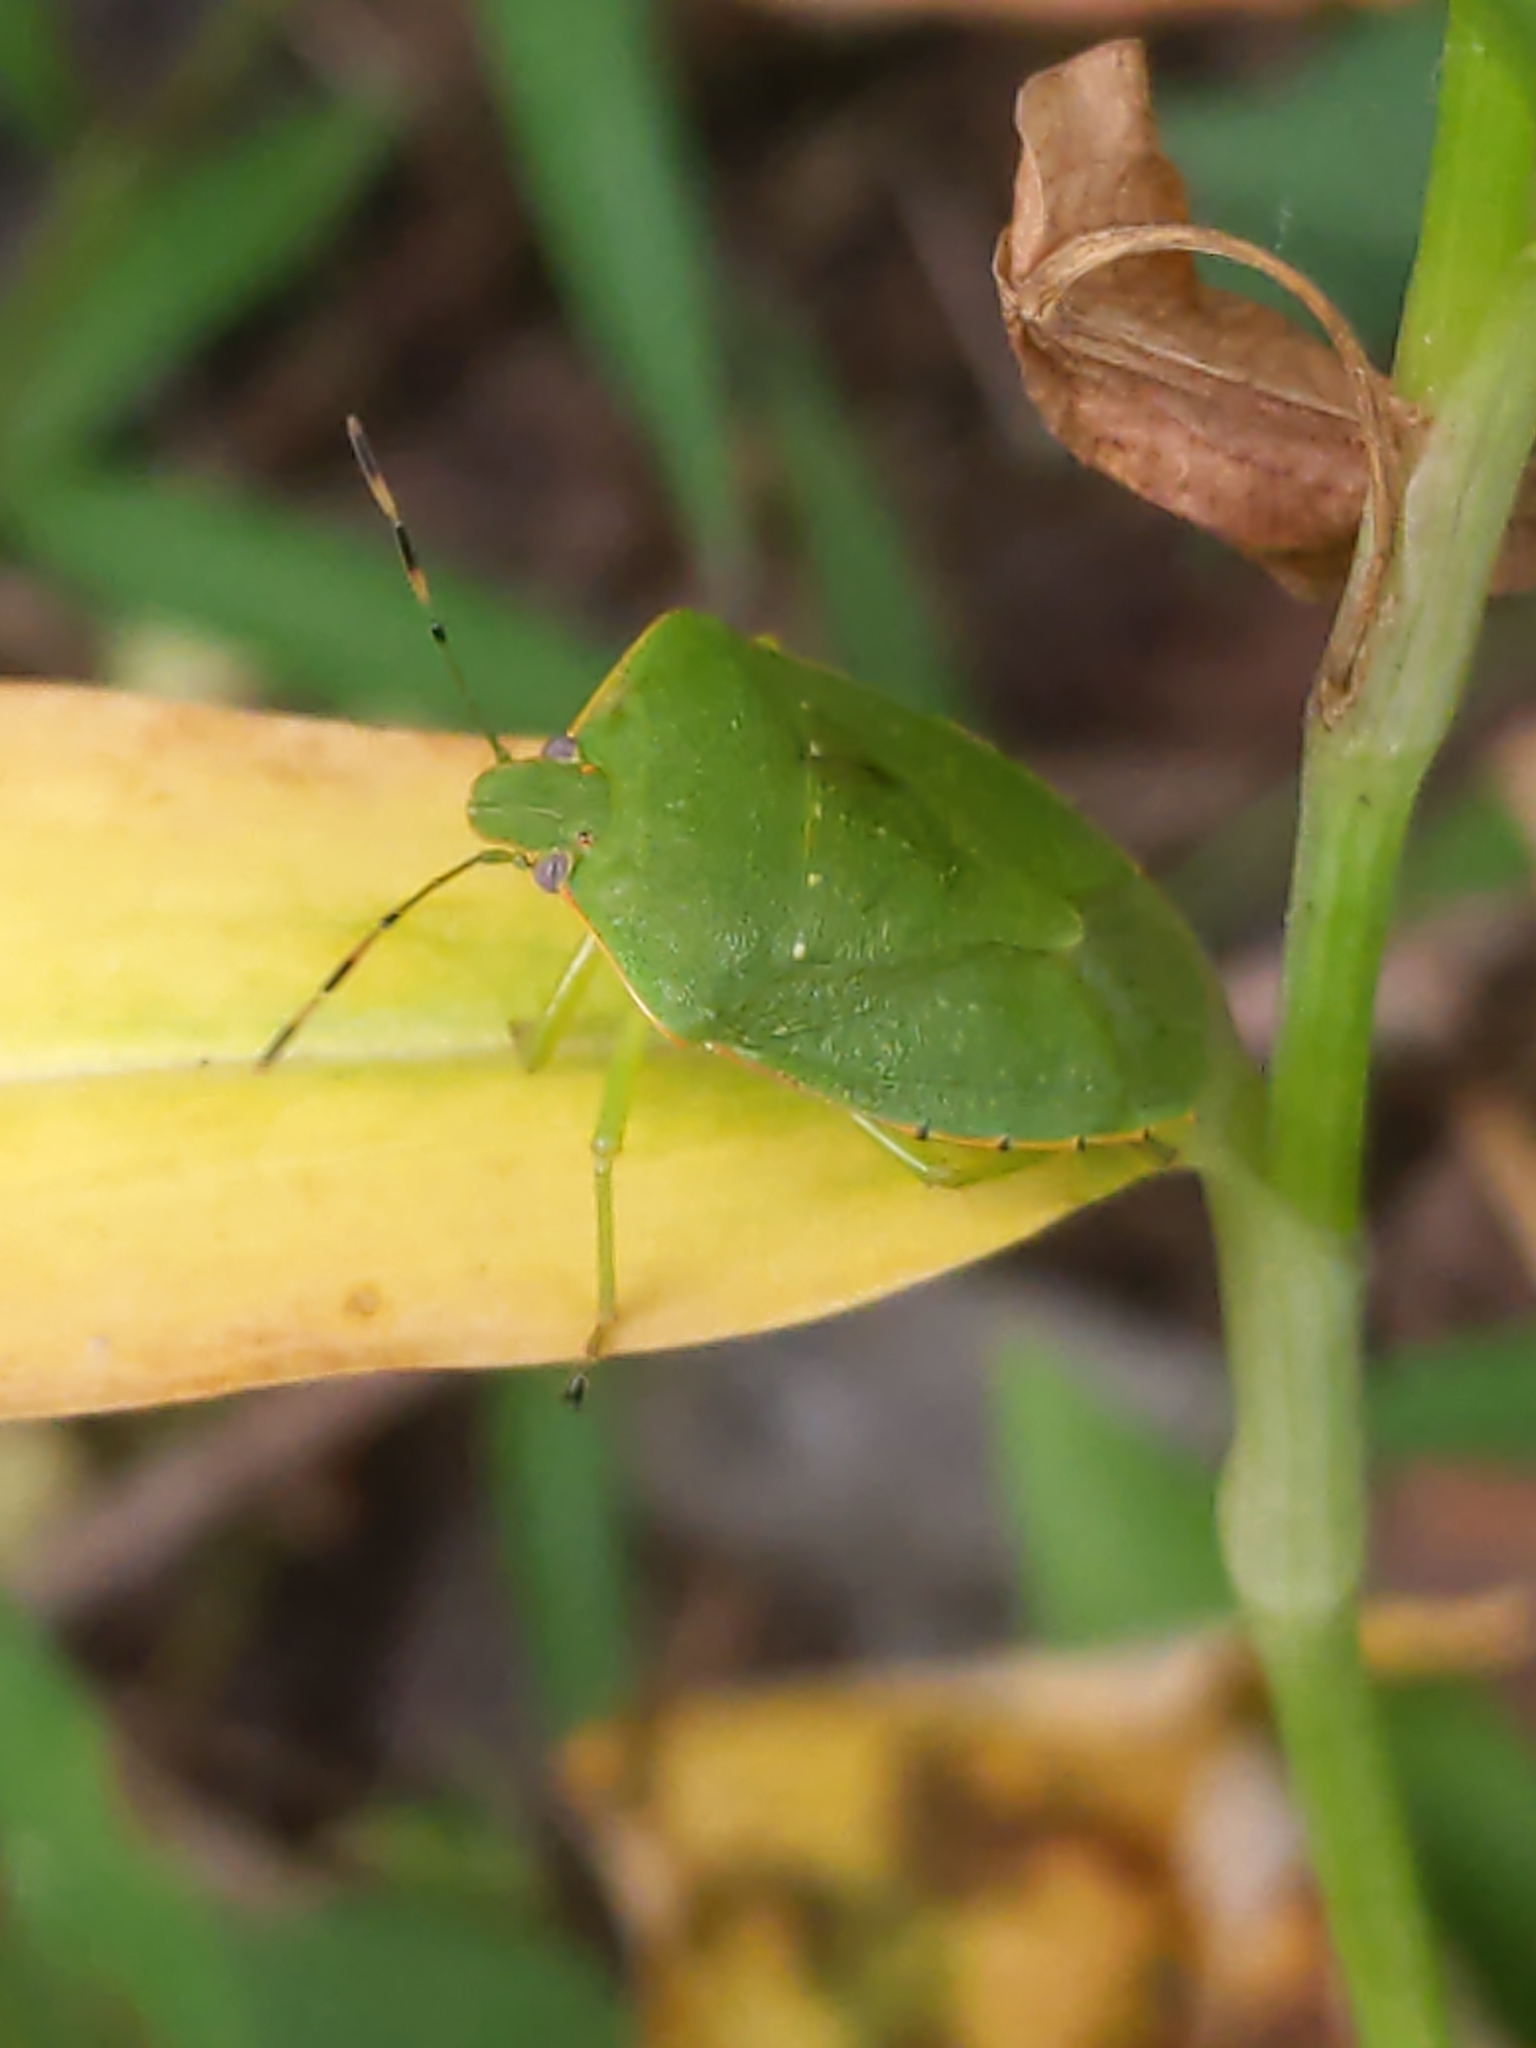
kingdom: Animalia
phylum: Arthropoda
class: Insecta
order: Hemiptera
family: Pentatomidae
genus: Chinavia
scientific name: Chinavia hilaris
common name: Green stink bug
